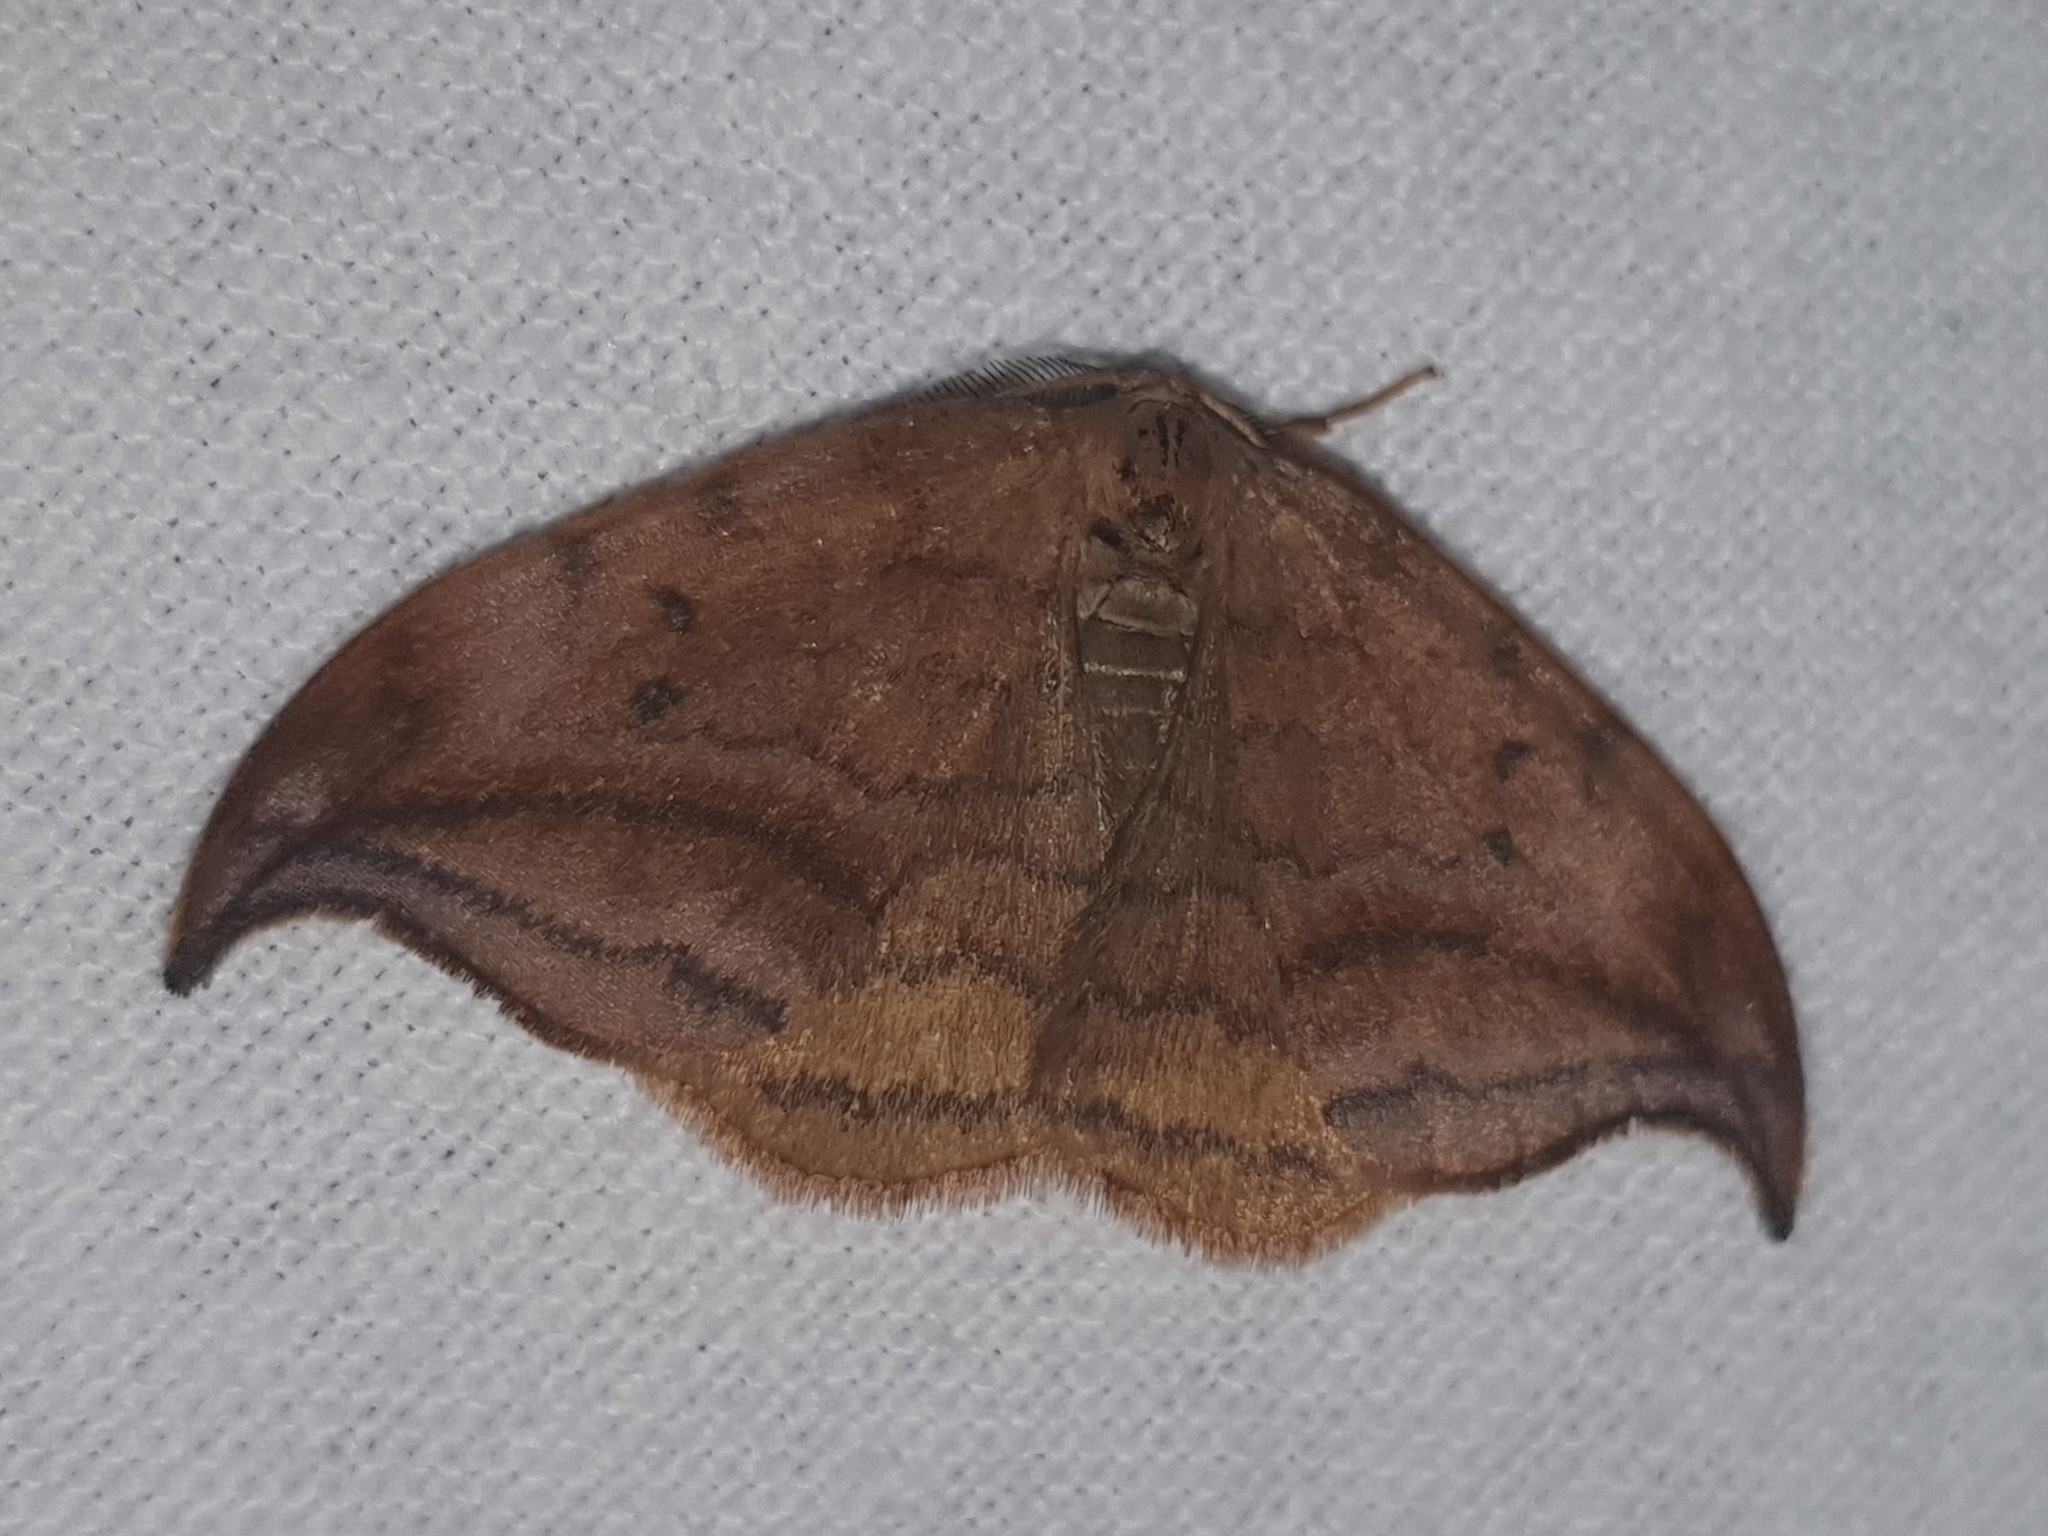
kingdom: Animalia
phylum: Arthropoda
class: Insecta
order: Lepidoptera
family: Drepanidae
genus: Drepana
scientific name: Drepana curvatula
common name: Dusky hook-tip
